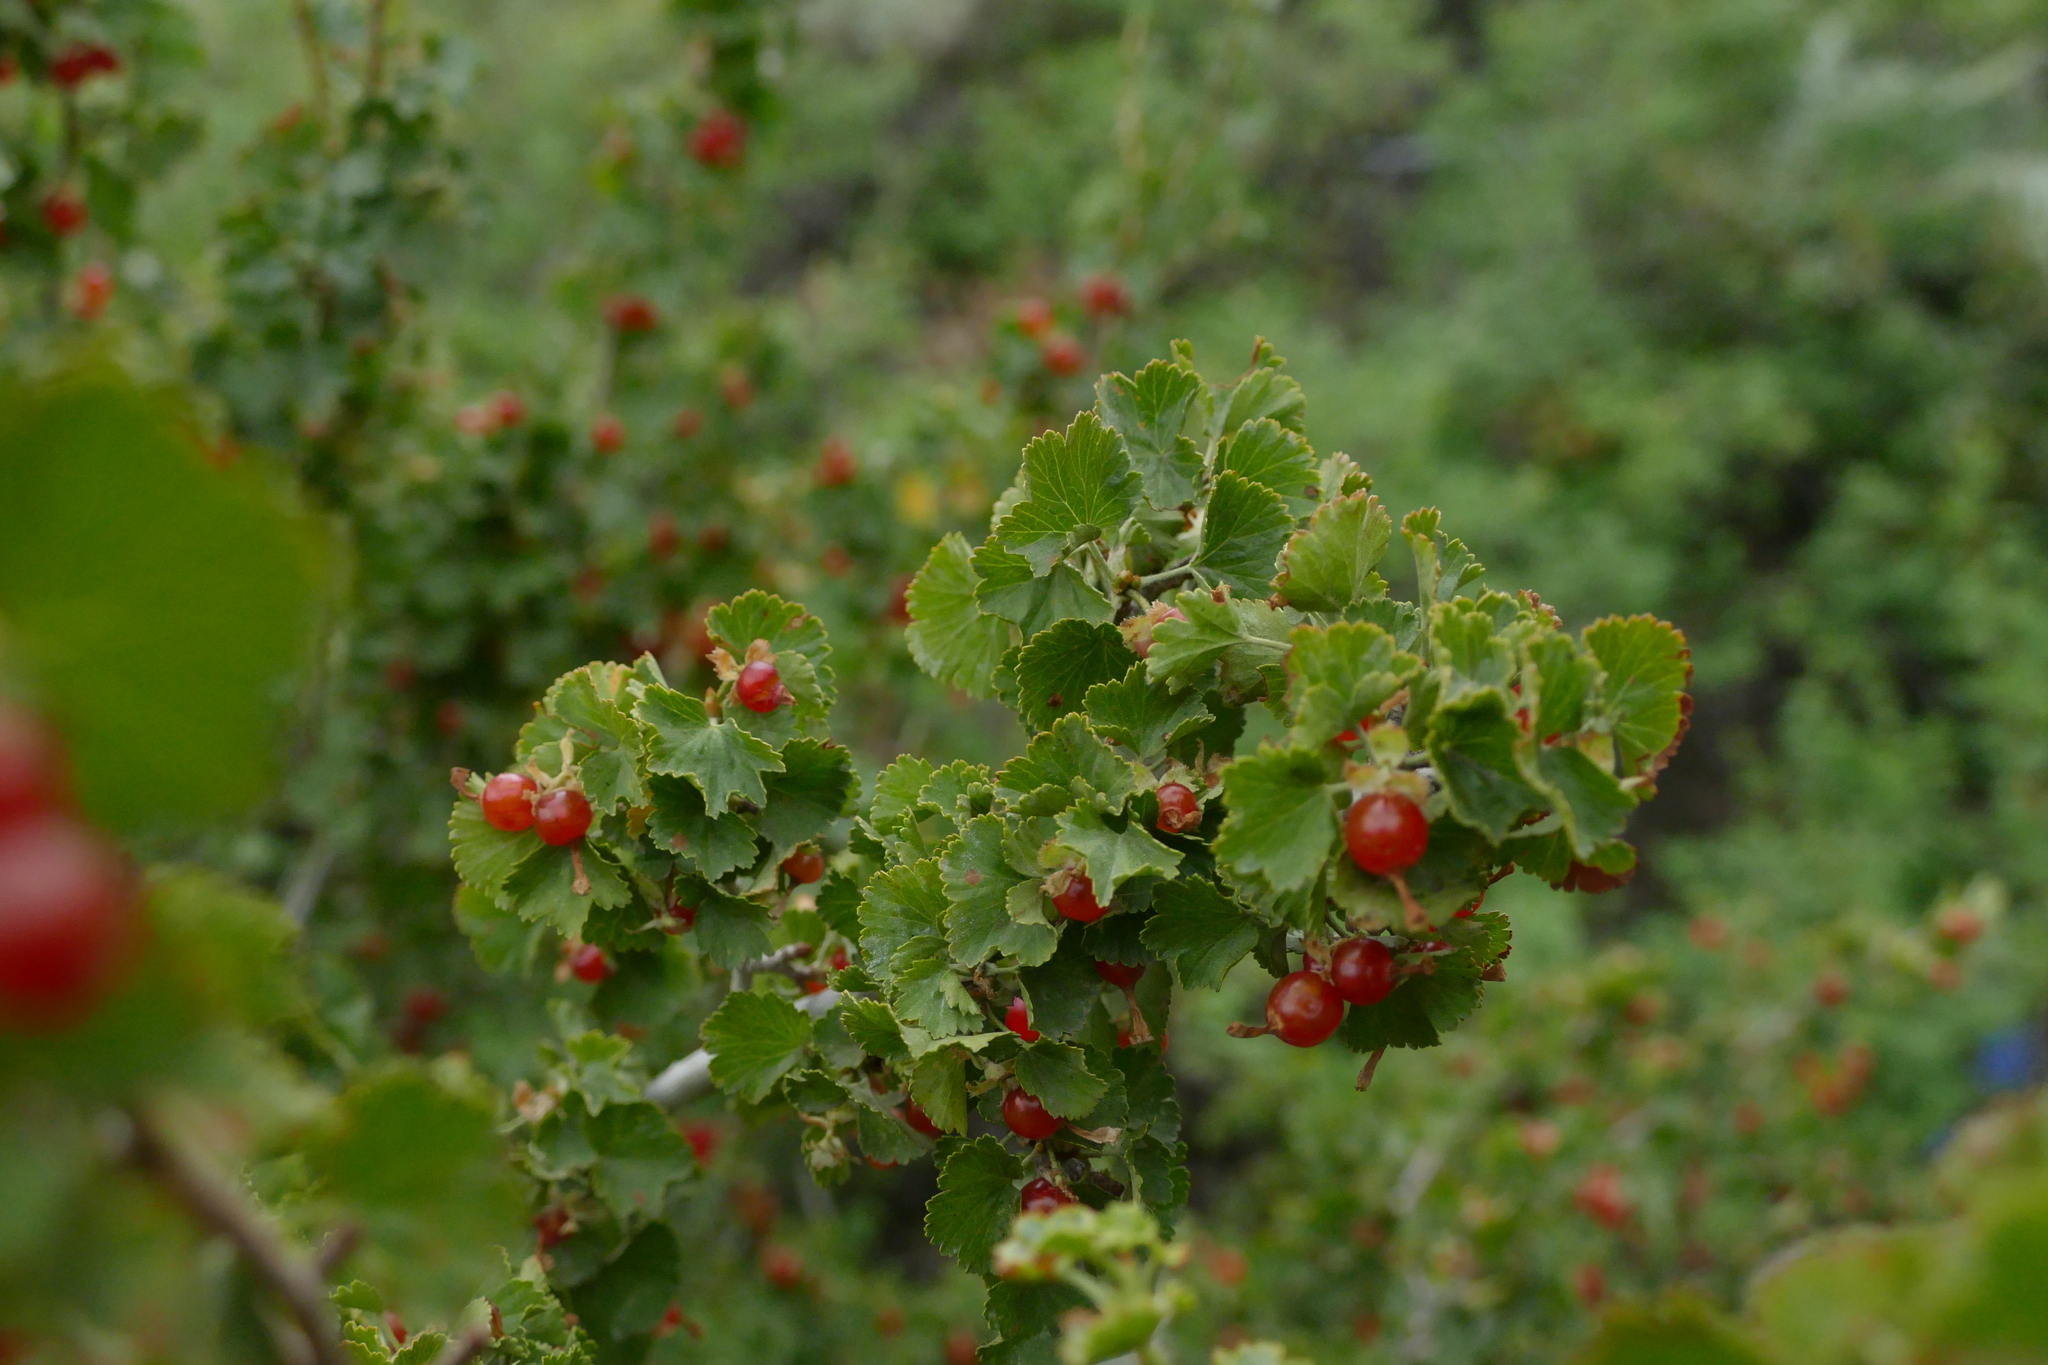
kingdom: Plantae
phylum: Tracheophyta
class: Magnoliopsida
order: Saxifragales
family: Grossulariaceae
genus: Ribes
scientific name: Ribes cereum
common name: Wax currant
